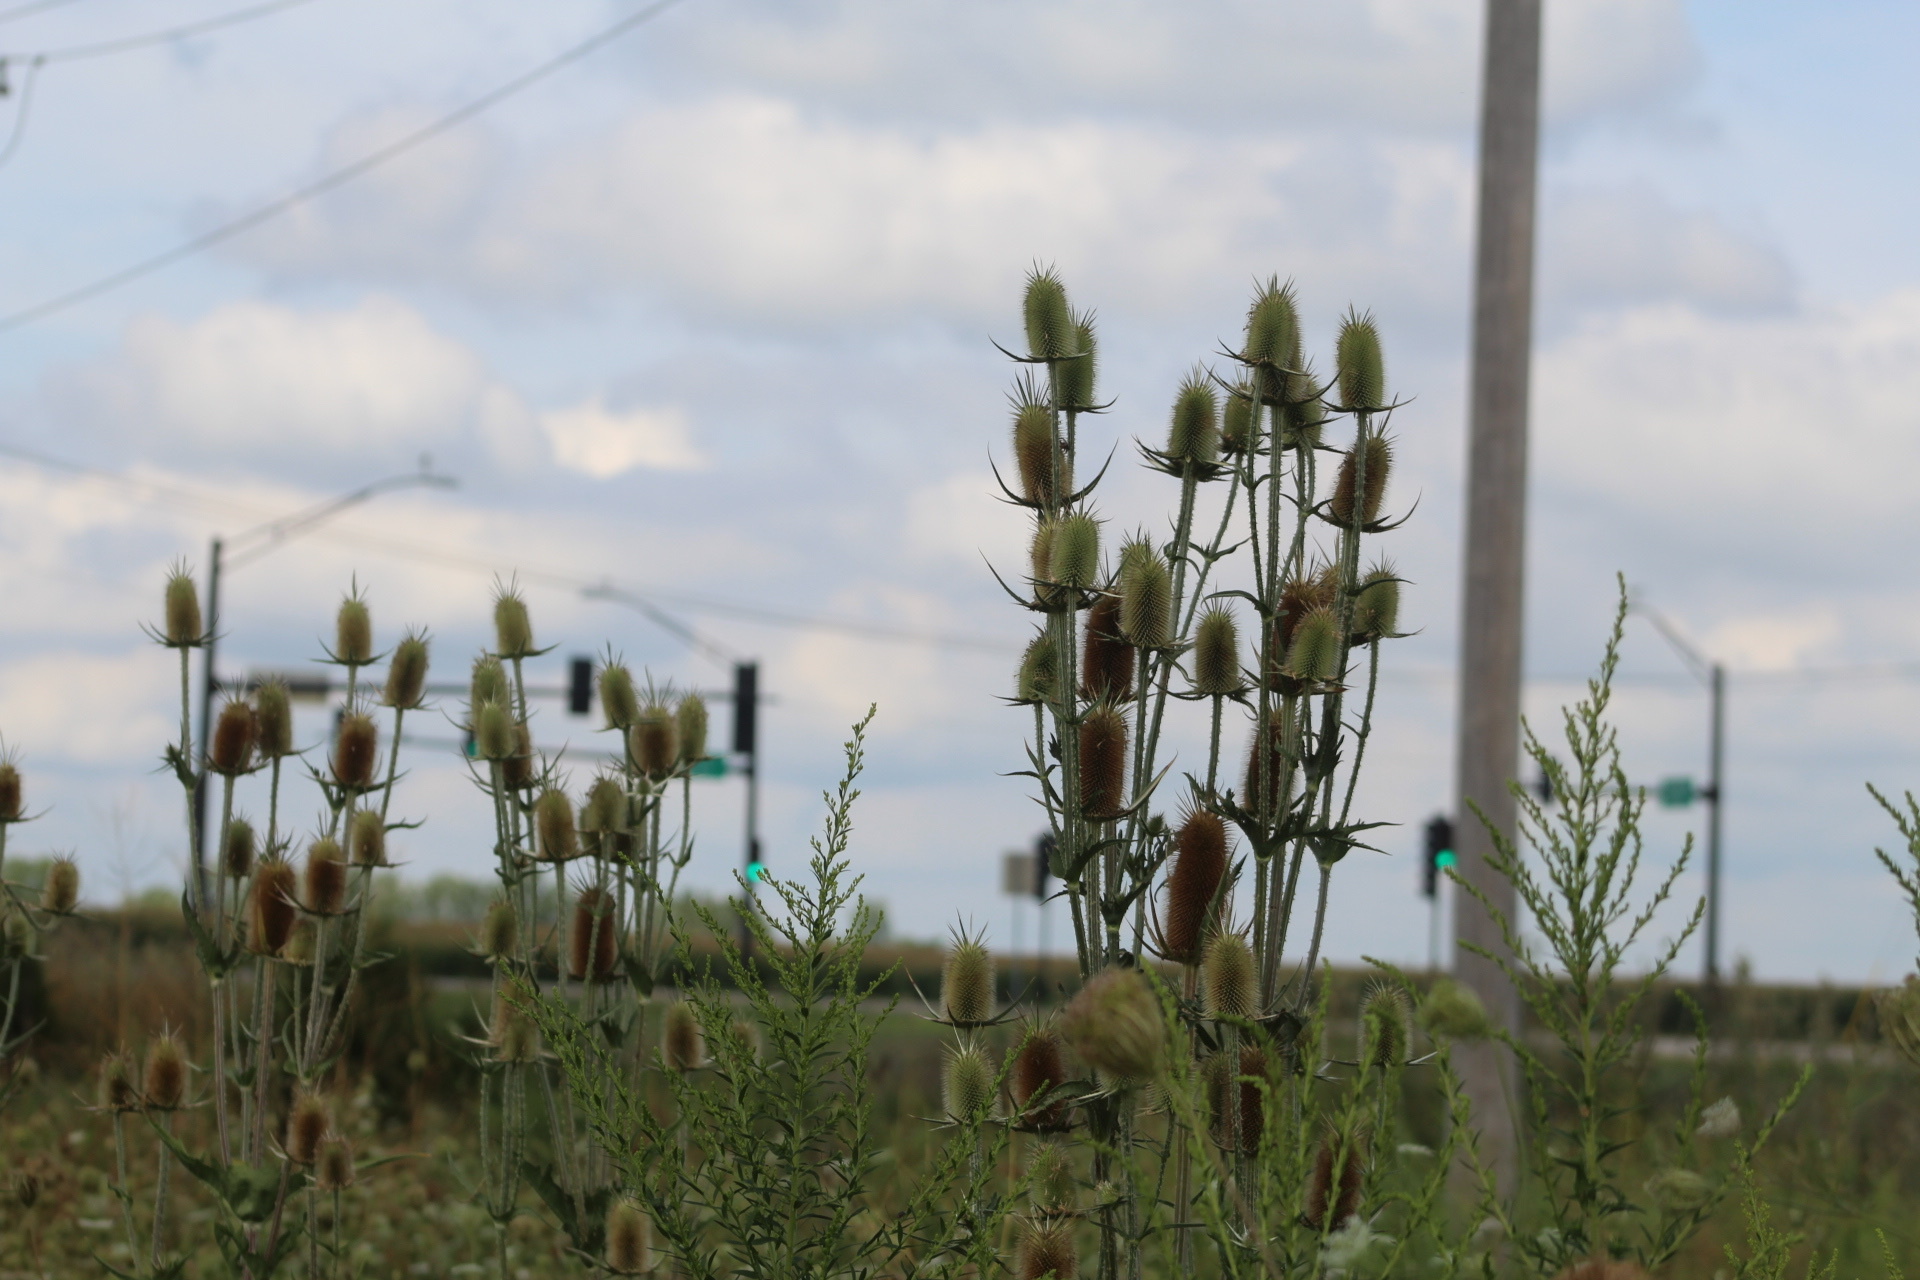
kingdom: Plantae
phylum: Tracheophyta
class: Magnoliopsida
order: Dipsacales
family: Caprifoliaceae
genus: Dipsacus
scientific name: Dipsacus laciniatus
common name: Cut-leaved teasel
